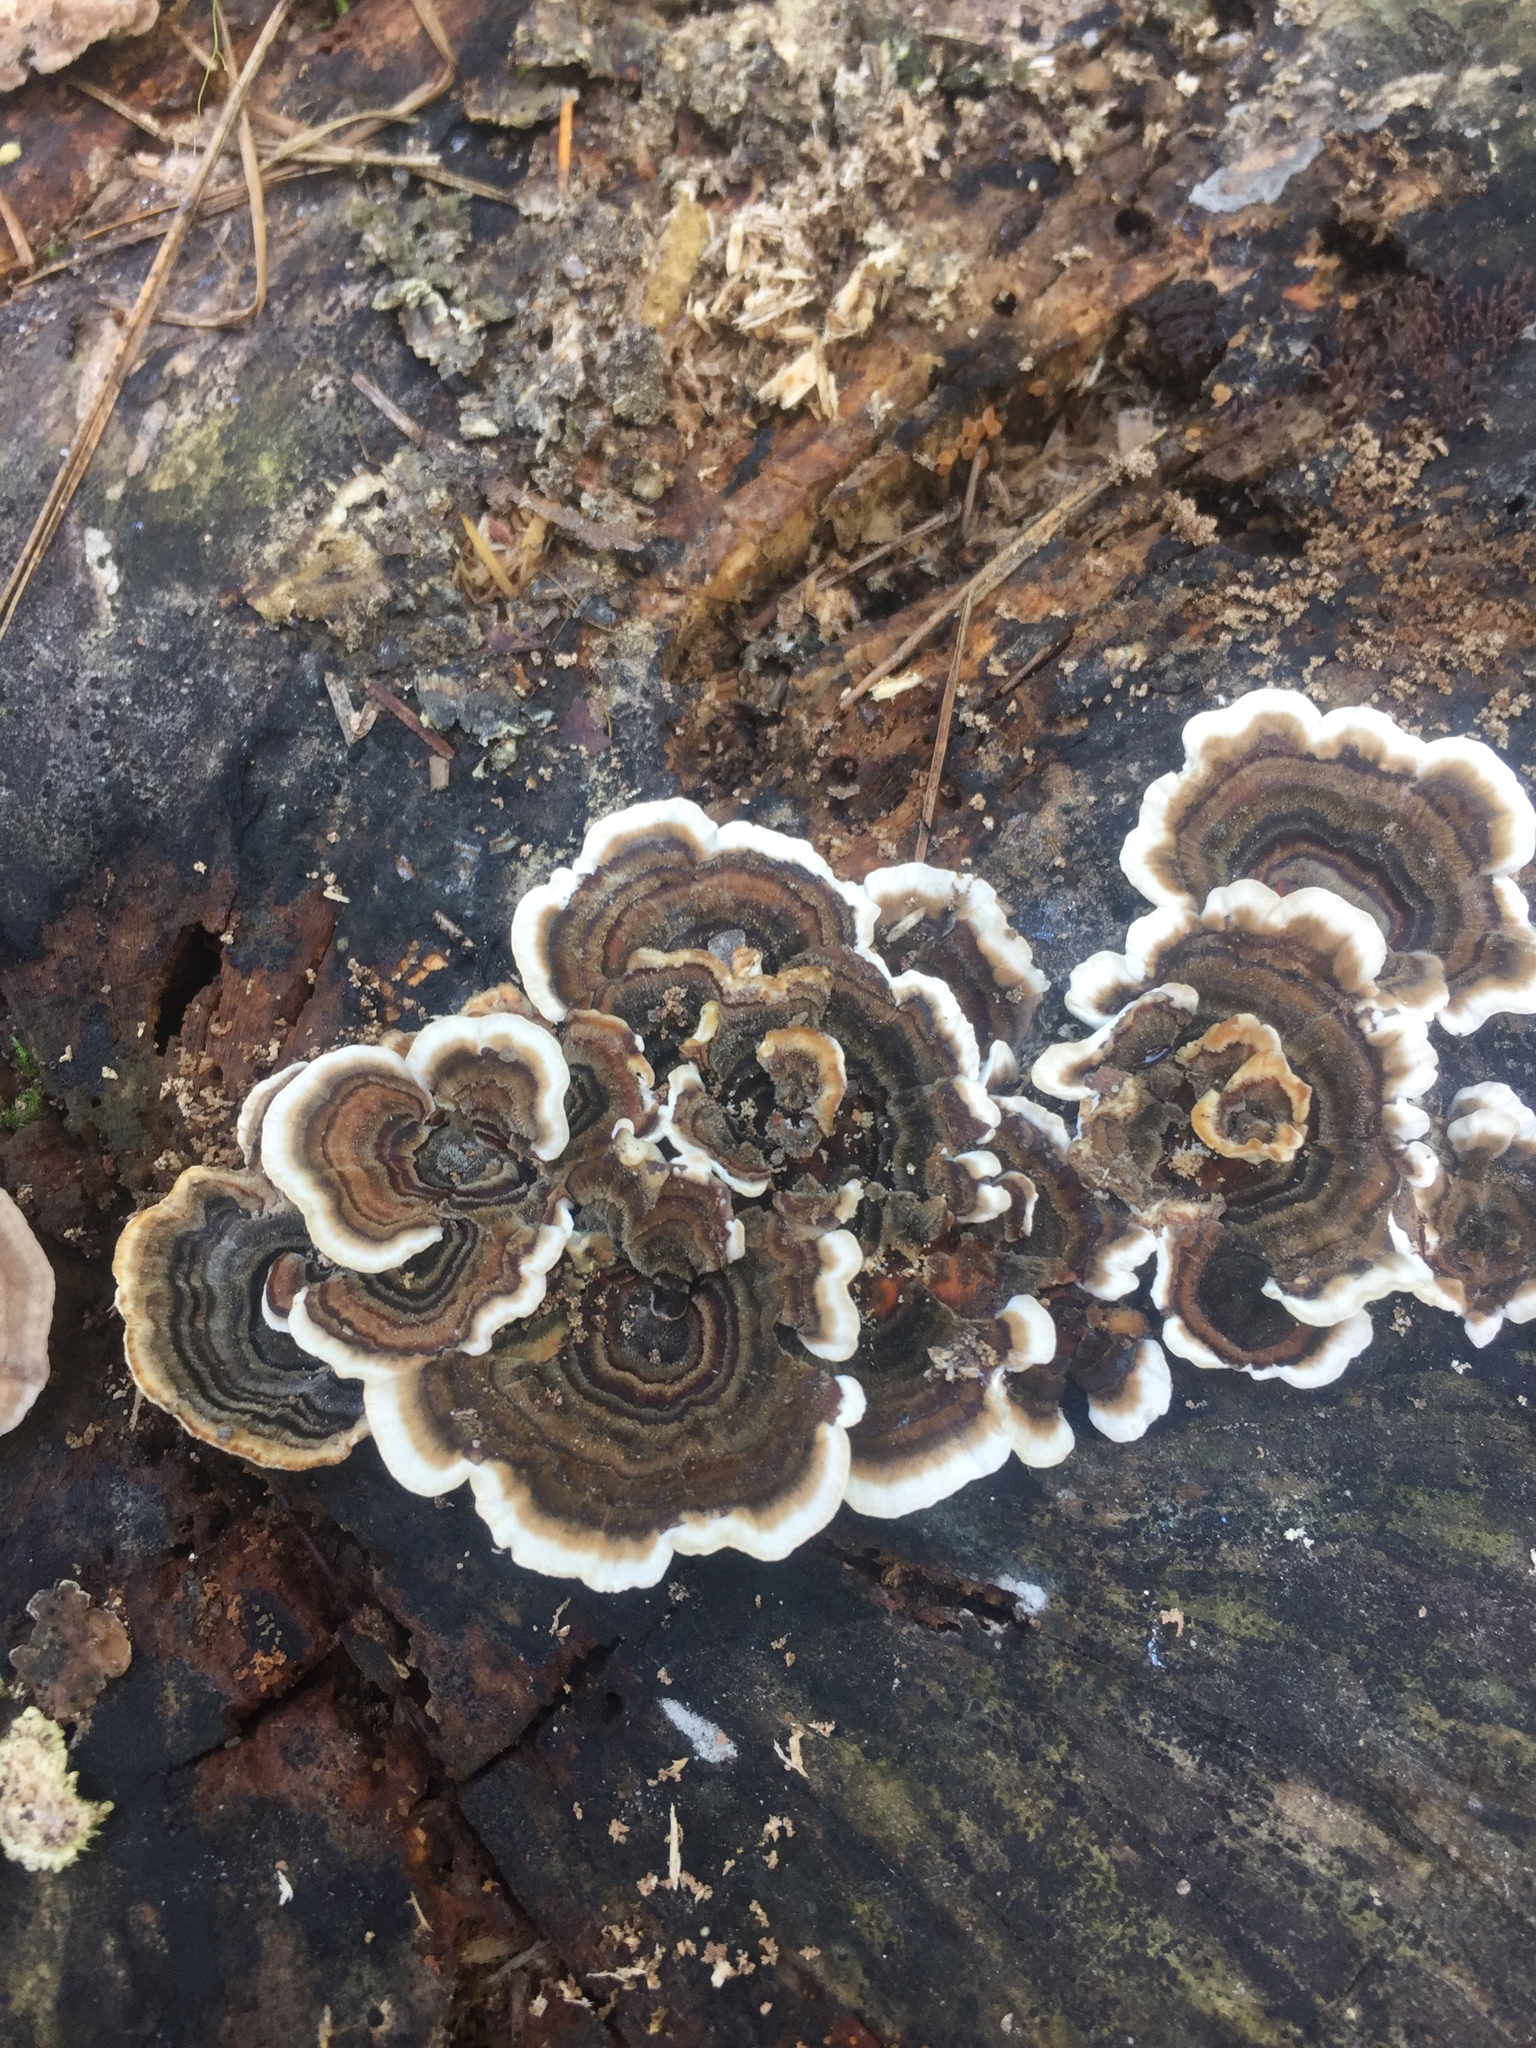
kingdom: Fungi
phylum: Basidiomycota
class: Agaricomycetes
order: Polyporales
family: Polyporaceae
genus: Trametes
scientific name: Trametes versicolor
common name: Turkeytail
